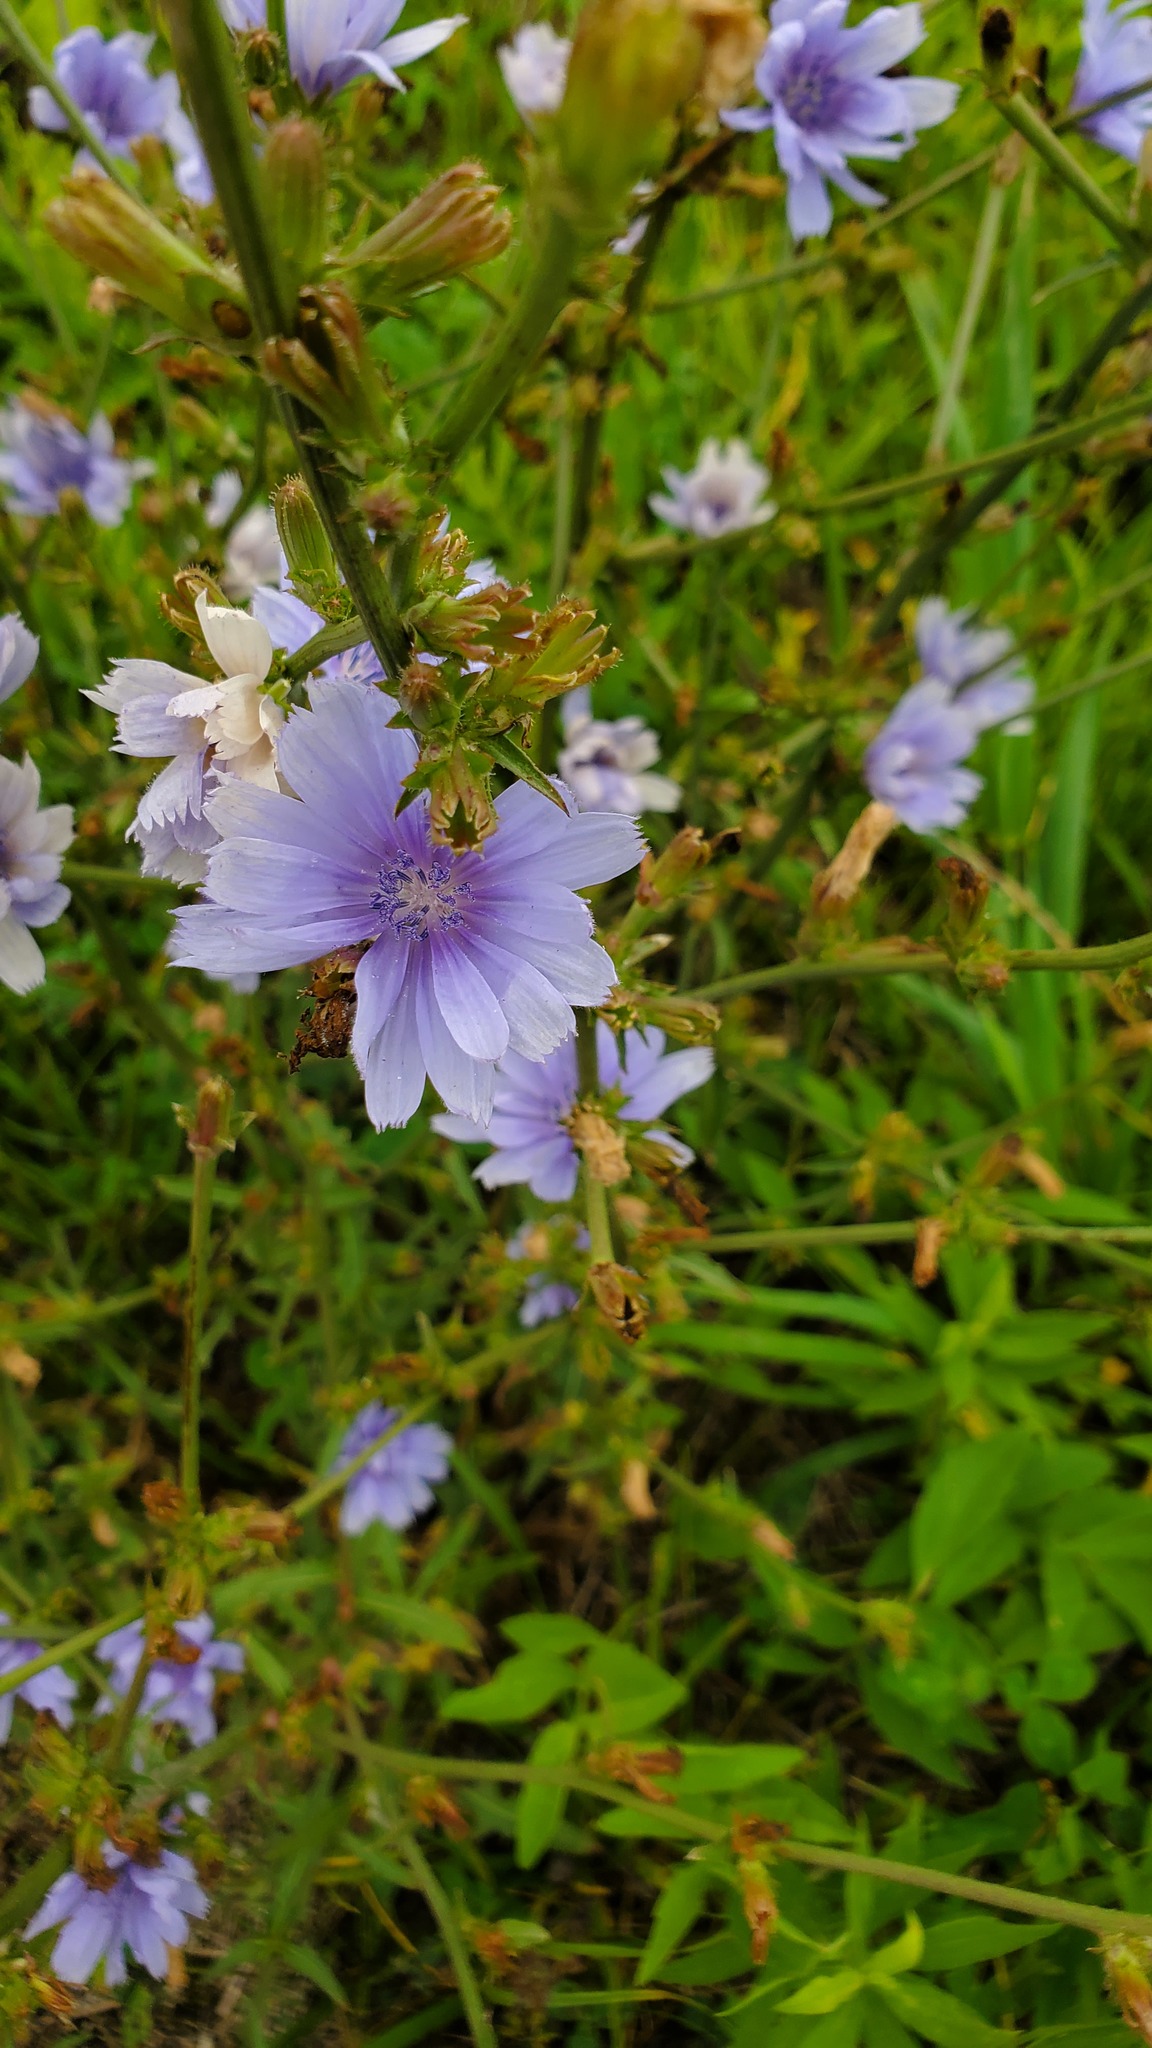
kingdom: Plantae
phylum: Tracheophyta
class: Magnoliopsida
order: Asterales
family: Asteraceae
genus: Cichorium
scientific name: Cichorium intybus
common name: Chicory
